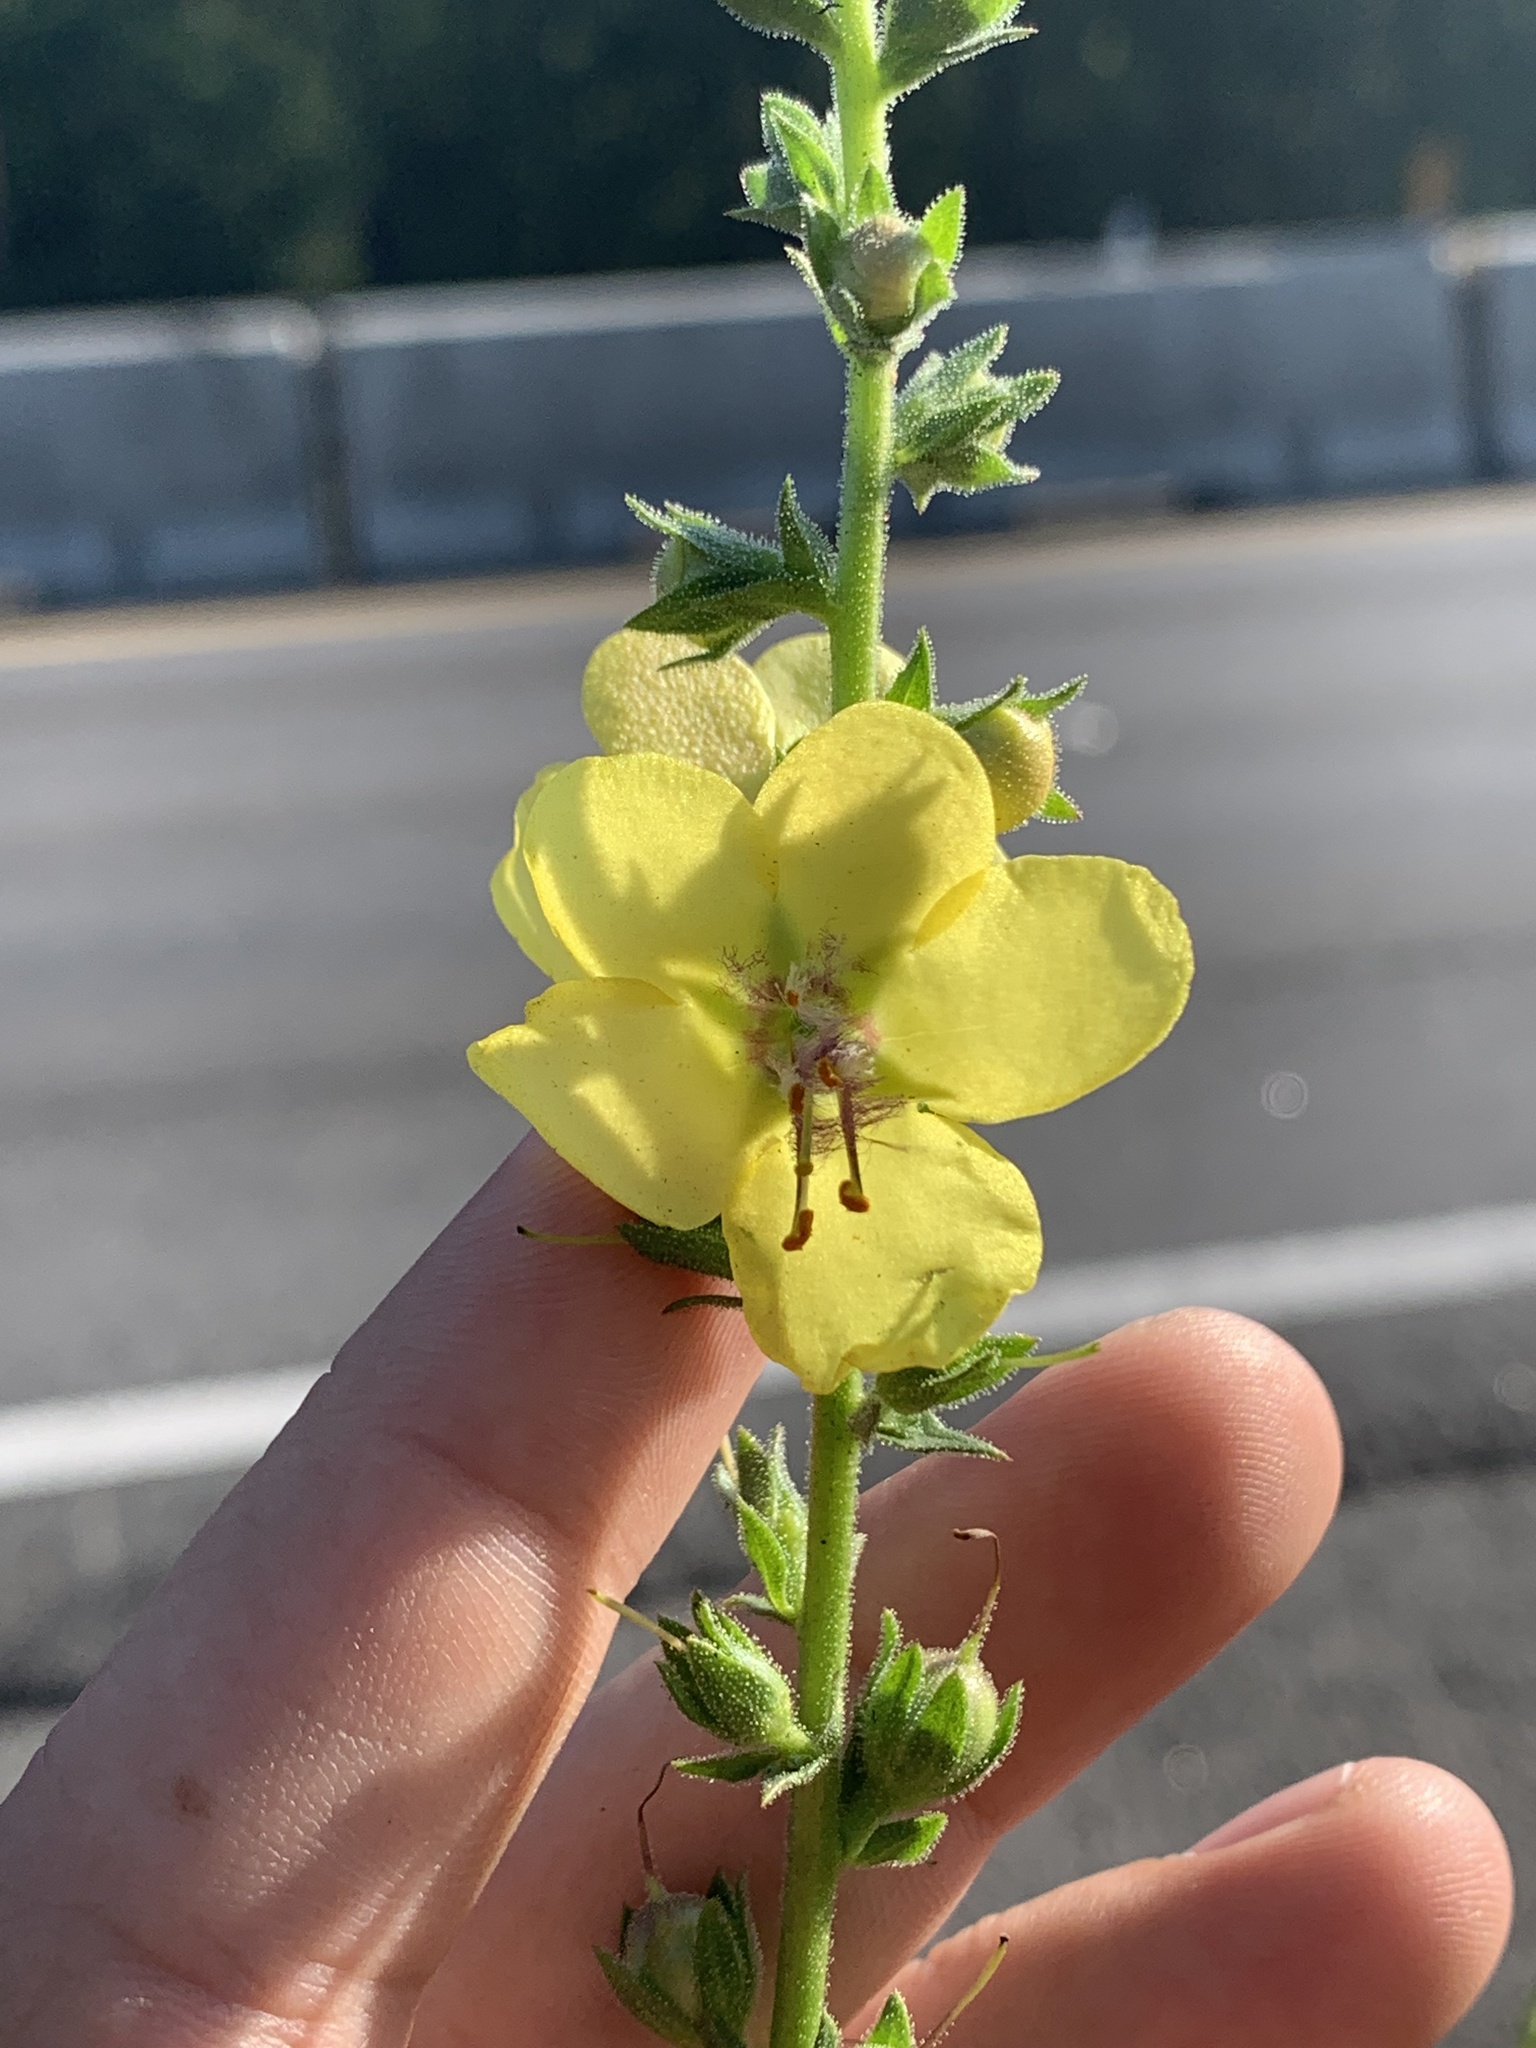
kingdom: Plantae
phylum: Tracheophyta
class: Magnoliopsida
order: Lamiales
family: Scrophulariaceae
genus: Verbascum
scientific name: Verbascum virgatum
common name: Twiggy mullein
